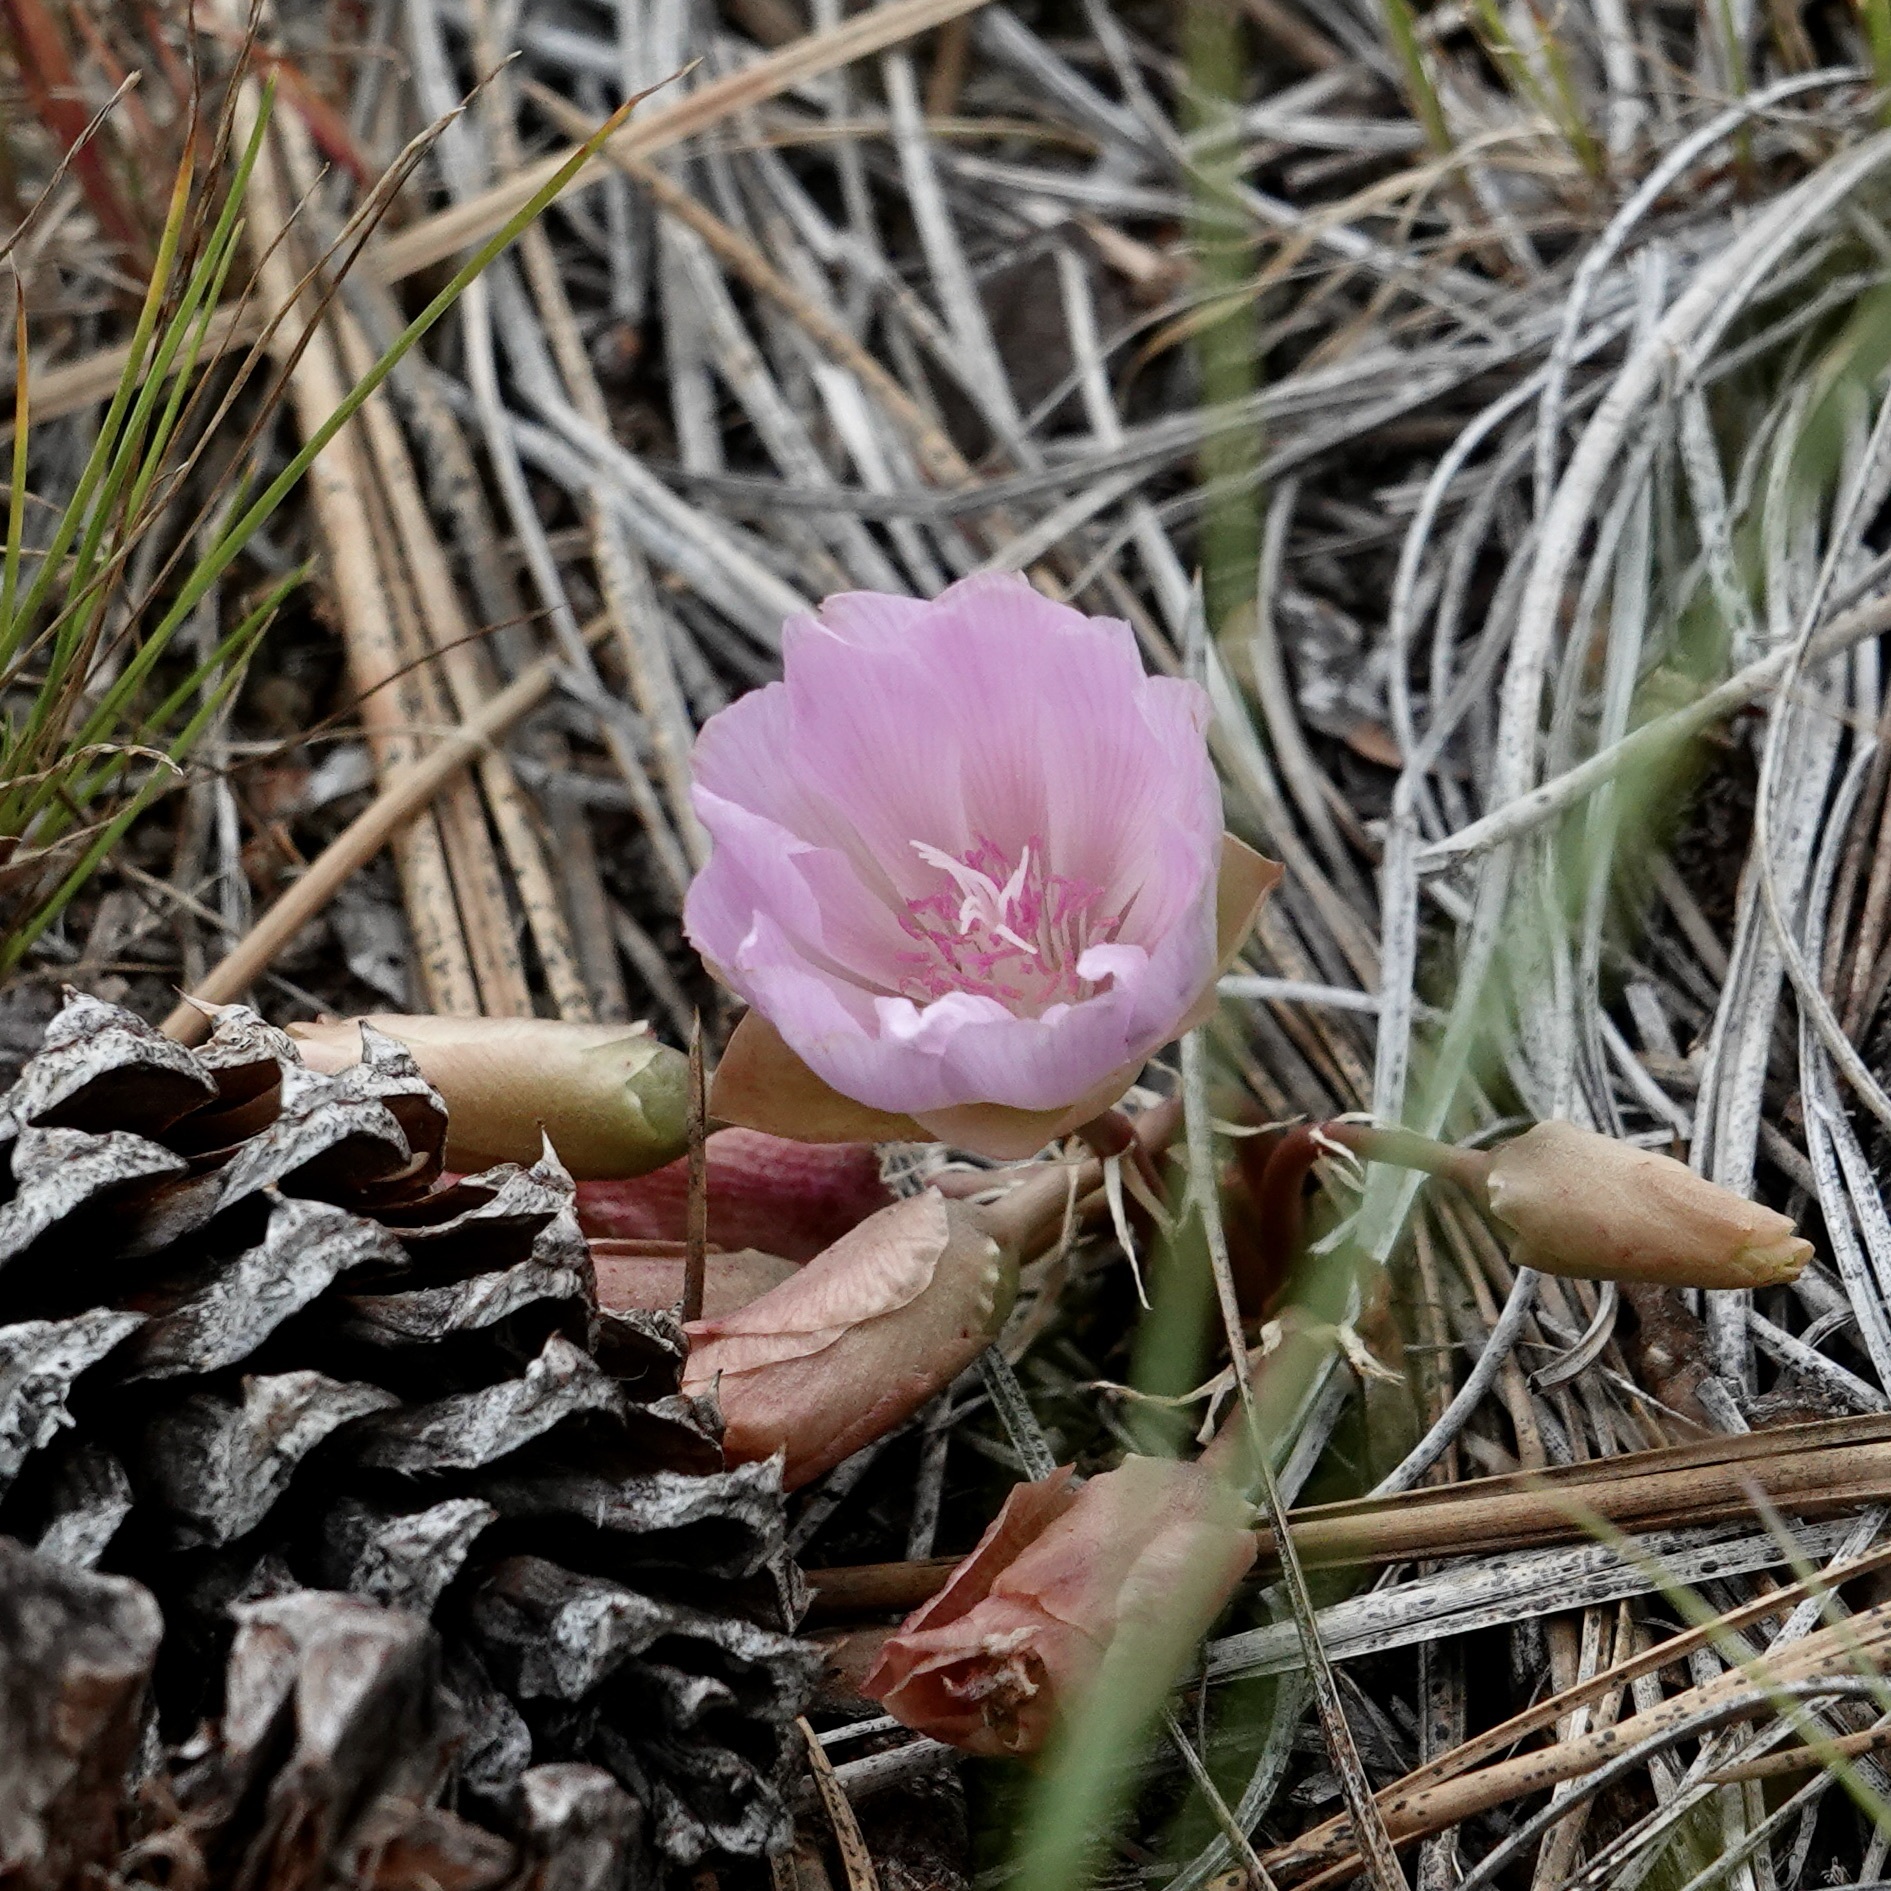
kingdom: Plantae
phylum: Tracheophyta
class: Magnoliopsida
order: Caryophyllales
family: Montiaceae
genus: Lewisia
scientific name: Lewisia rediviva
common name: Bitter-root
